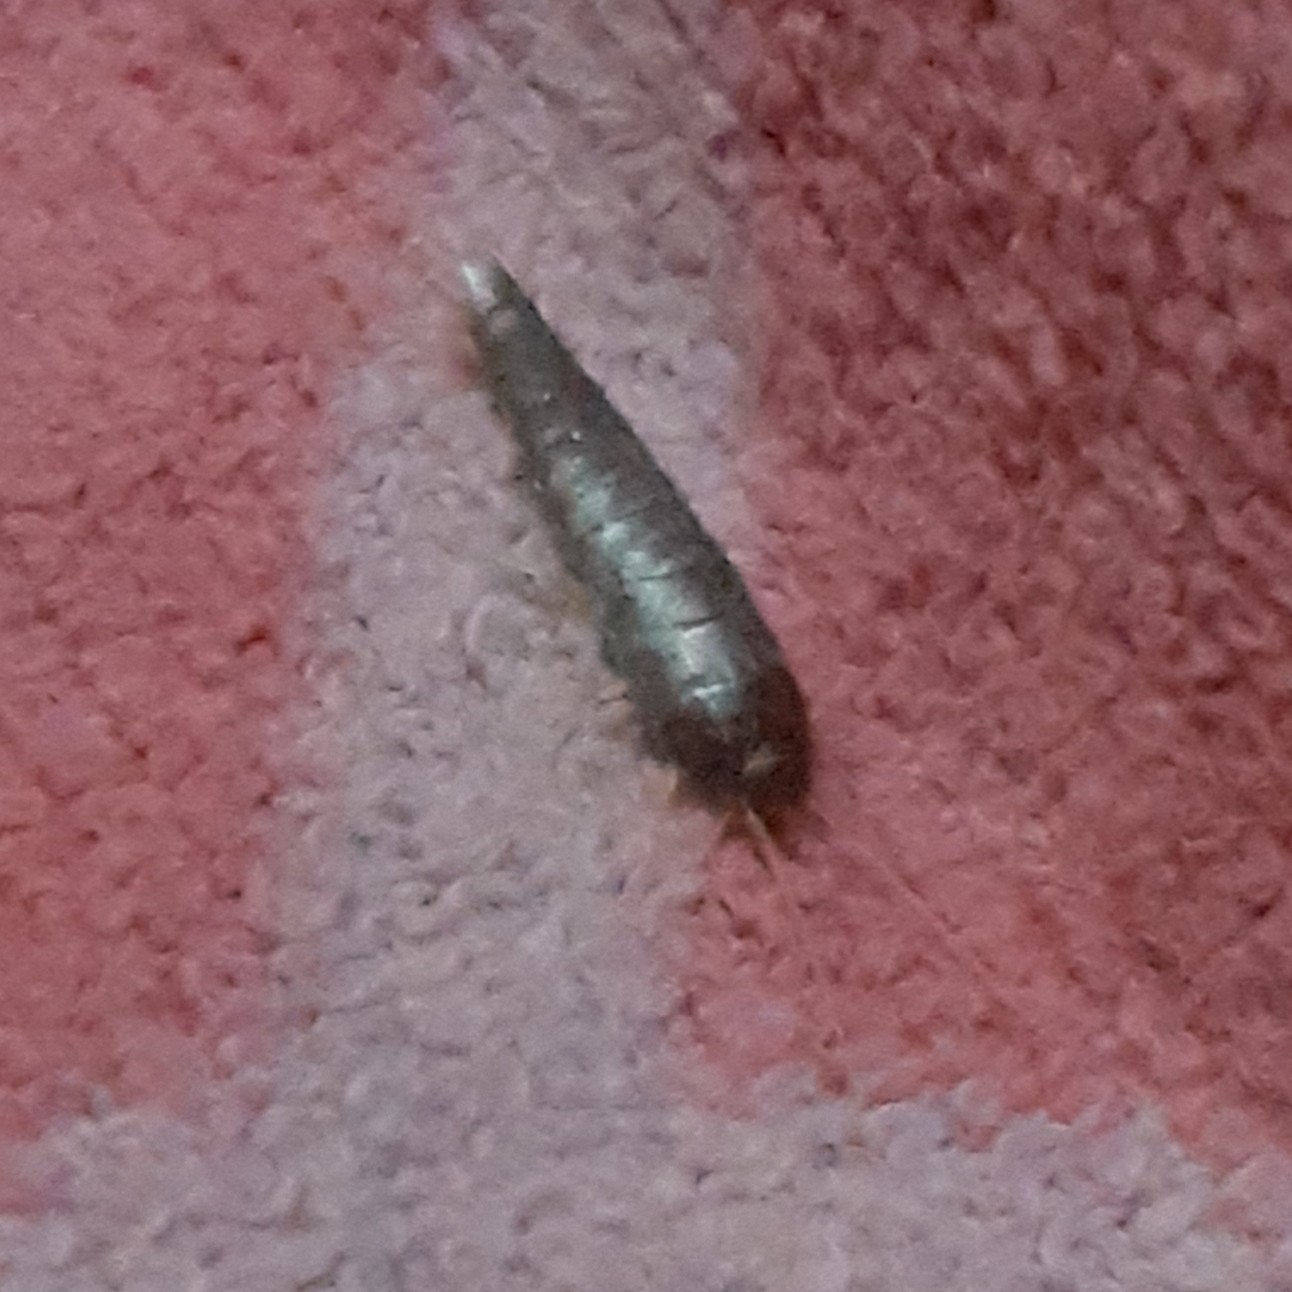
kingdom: Animalia
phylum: Arthropoda
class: Insecta
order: Zygentoma
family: Lepismatidae
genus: Lepisma
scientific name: Lepisma saccharinum
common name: Silverfish
